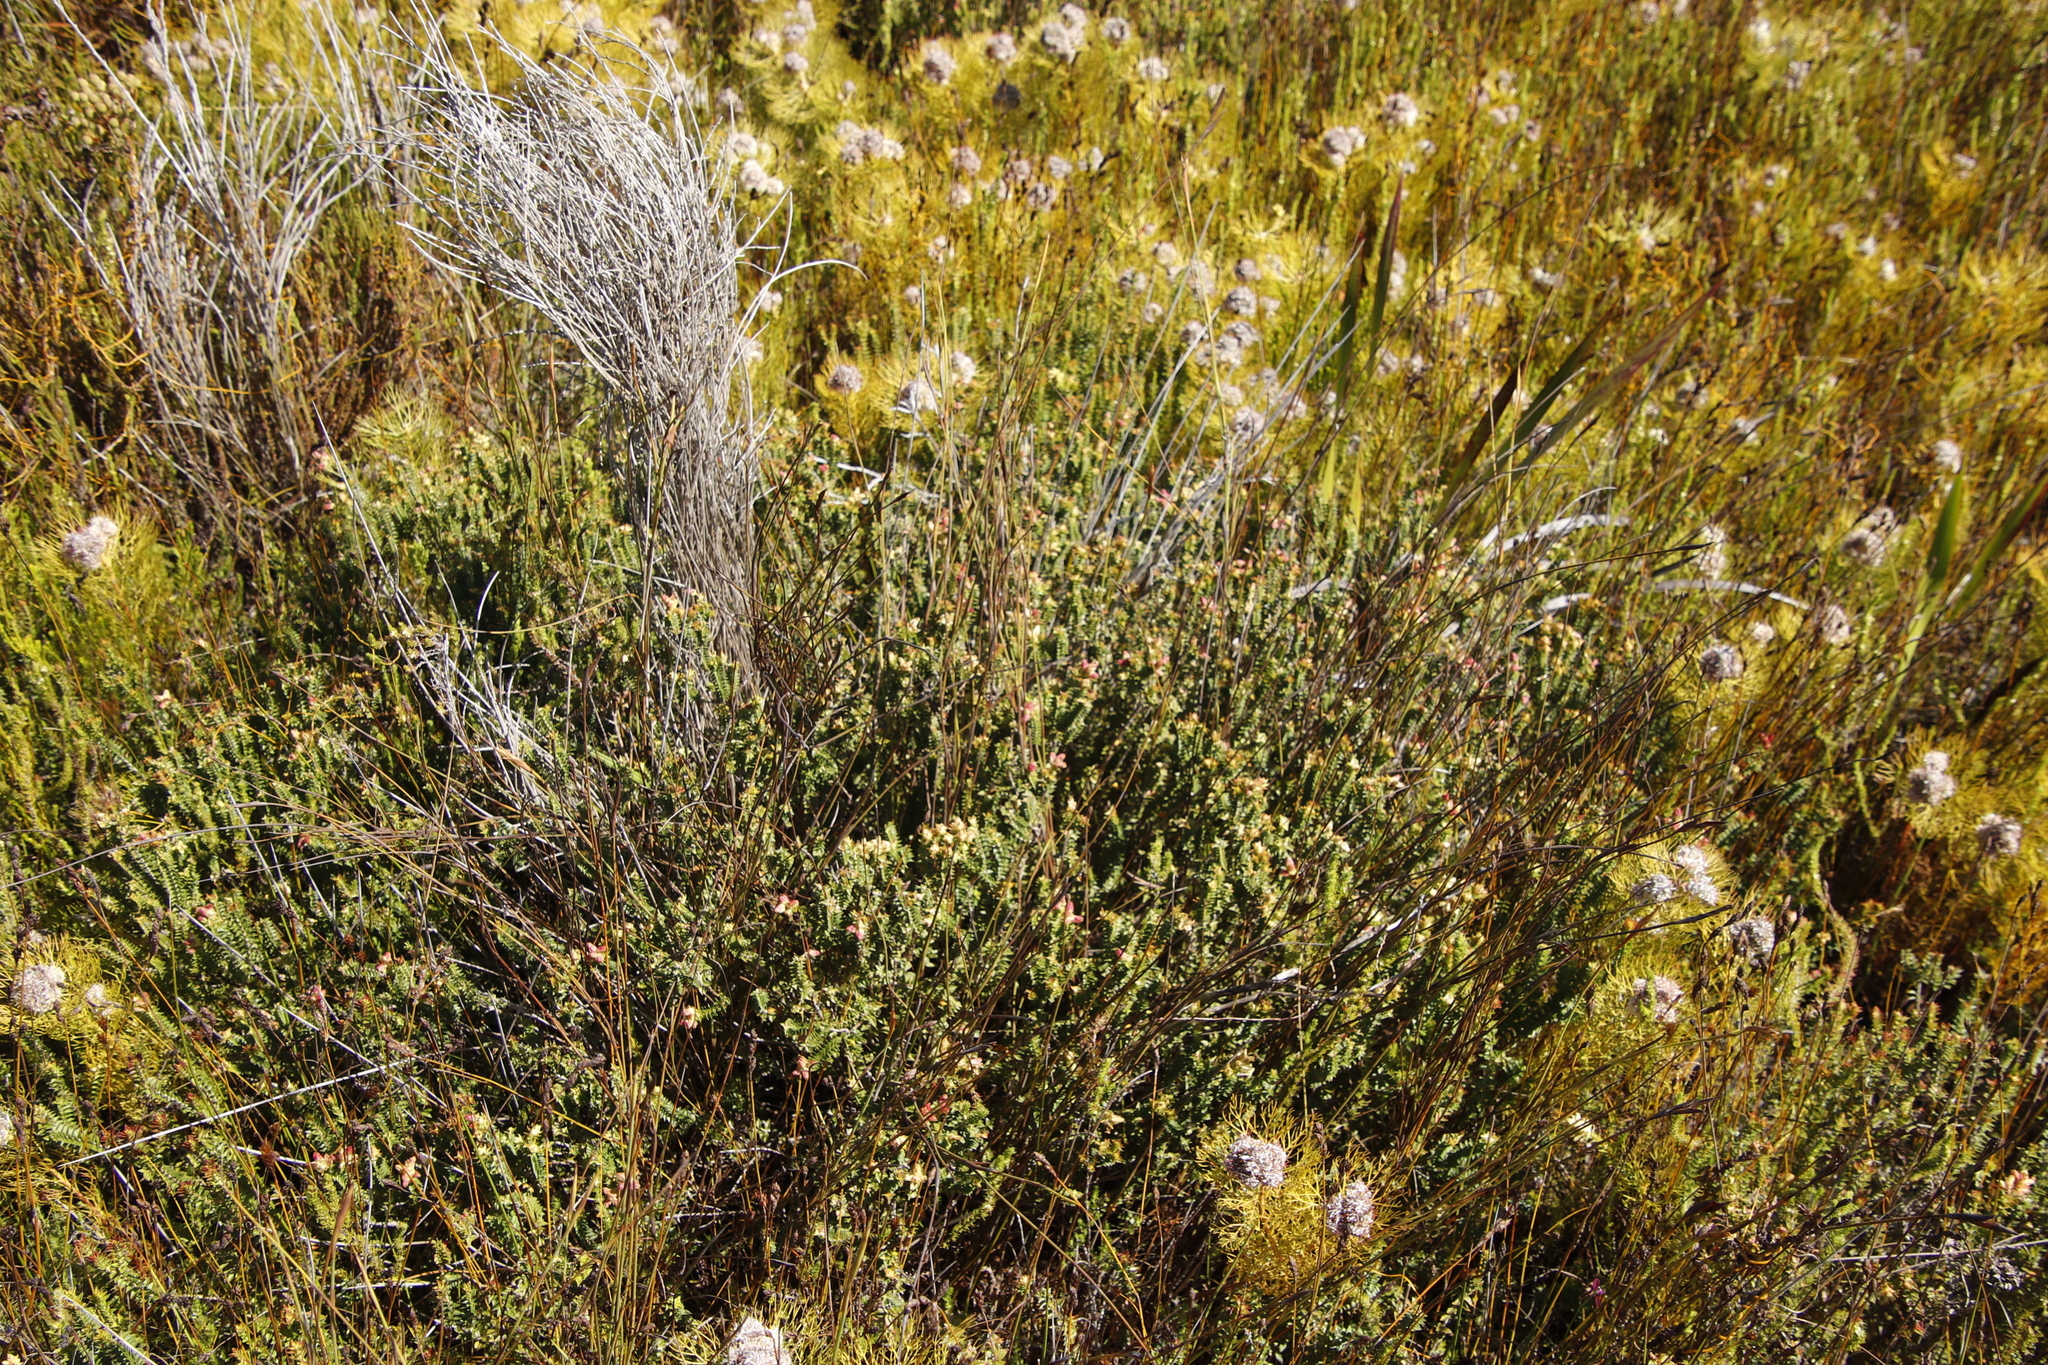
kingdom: Plantae
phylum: Tracheophyta
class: Magnoliopsida
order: Myrtales
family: Penaeaceae
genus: Penaea
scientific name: Penaea mucronata
